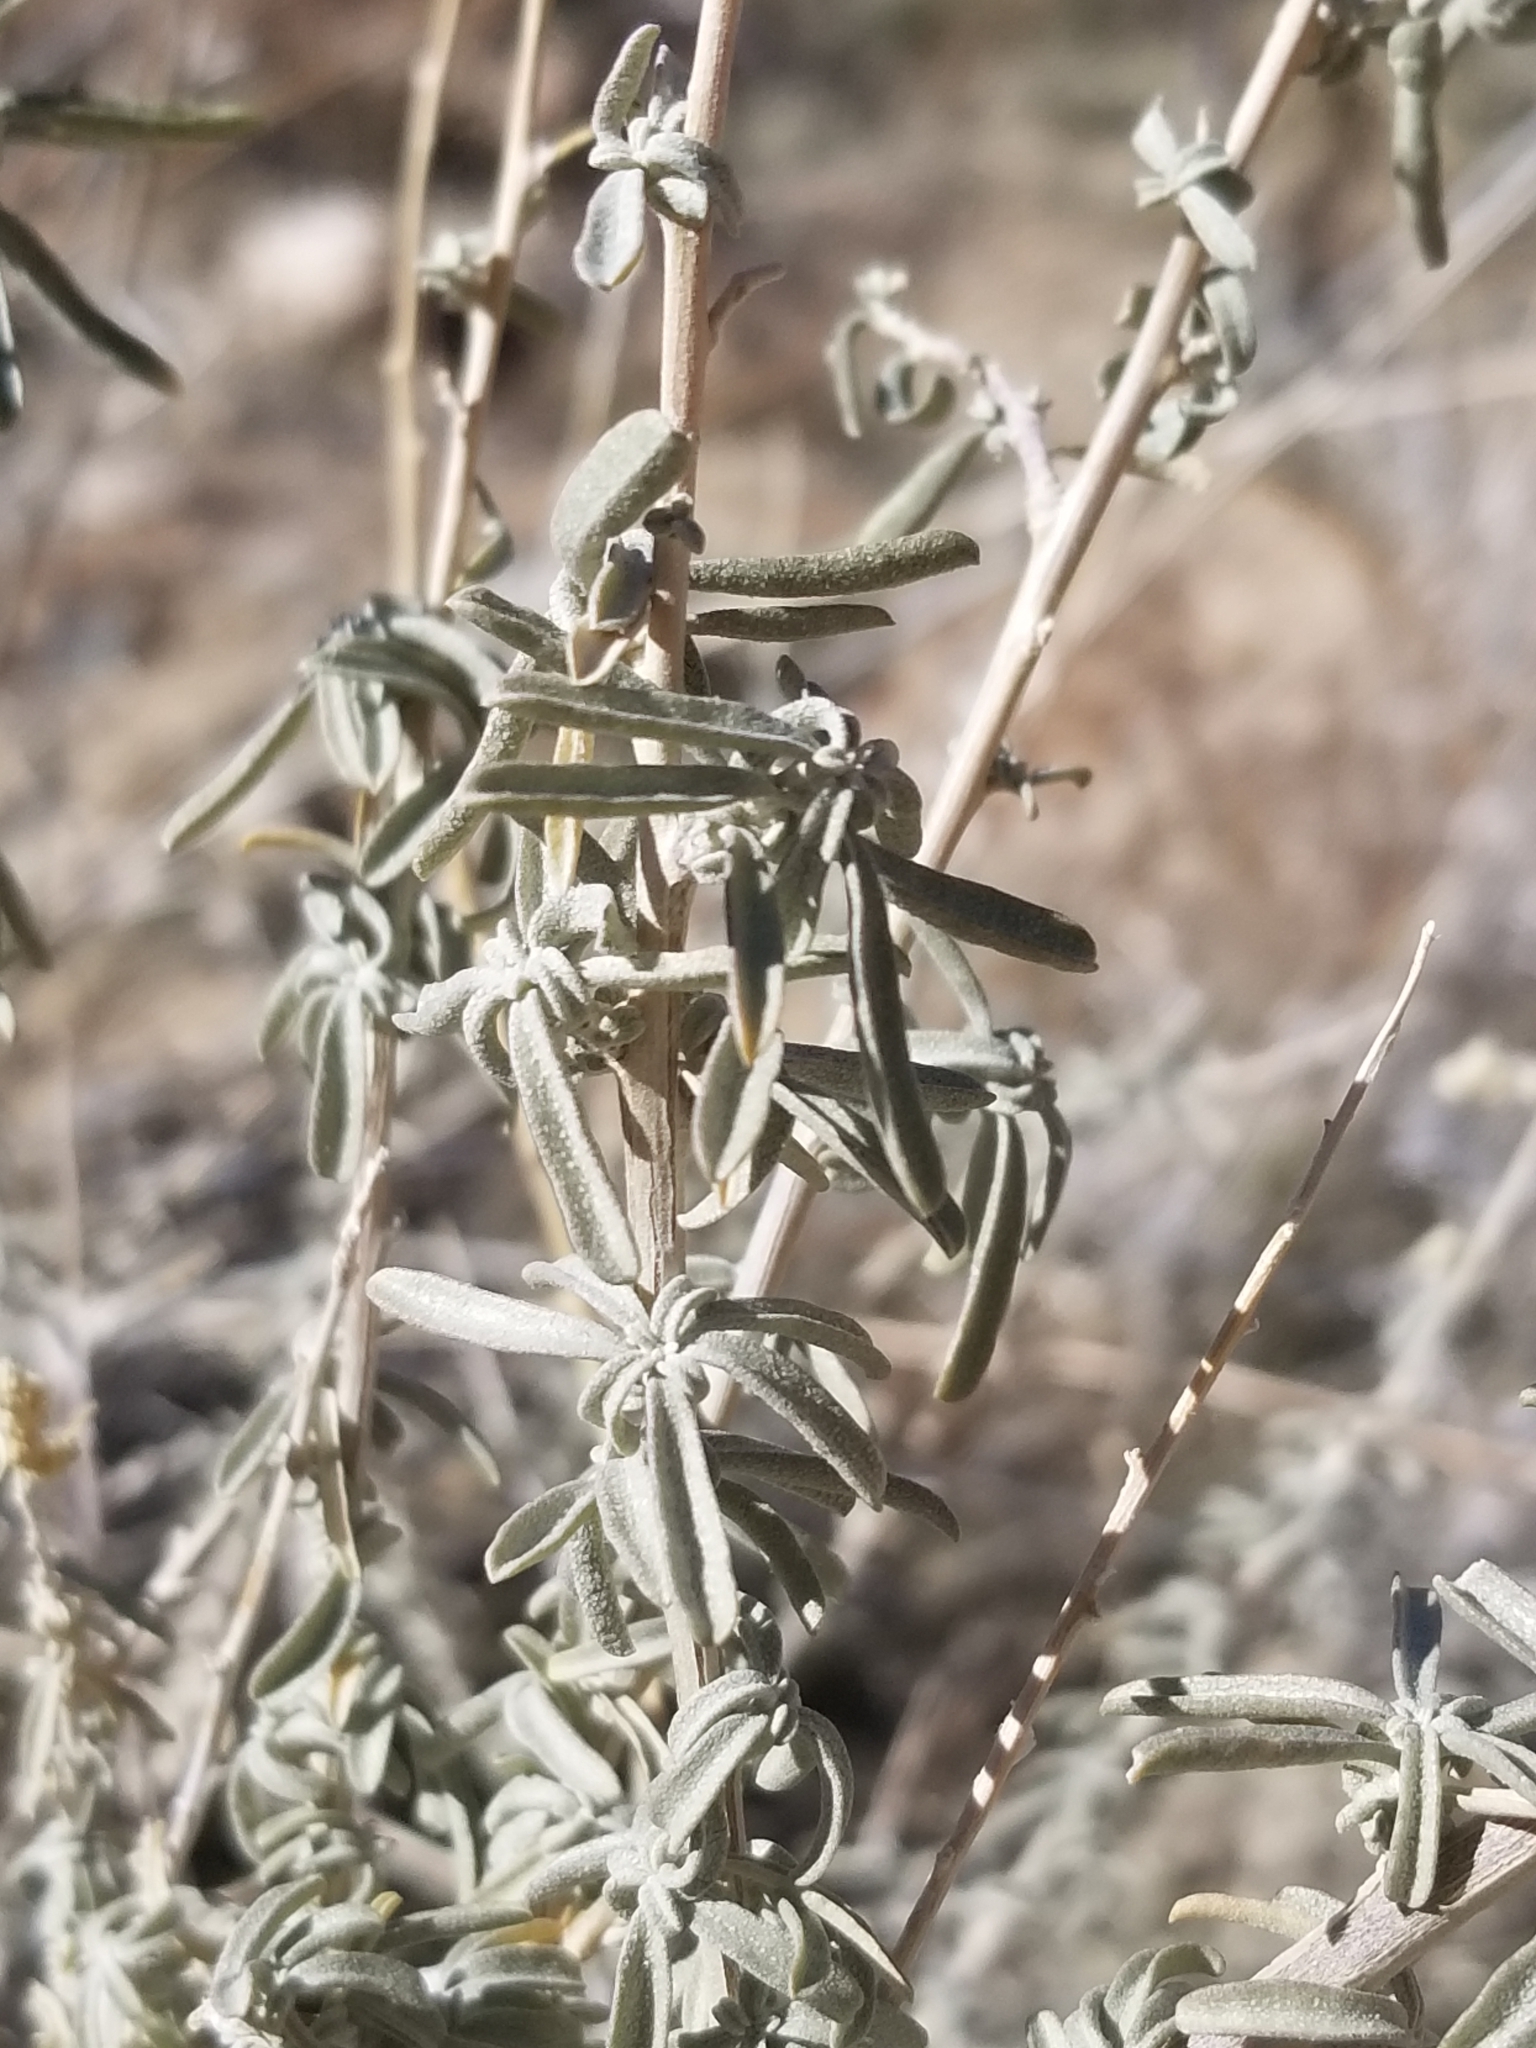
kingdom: Plantae
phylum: Tracheophyta
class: Magnoliopsida
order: Caryophyllales
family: Amaranthaceae
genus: Atriplex
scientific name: Atriplex canescens
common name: Four-wing saltbush
